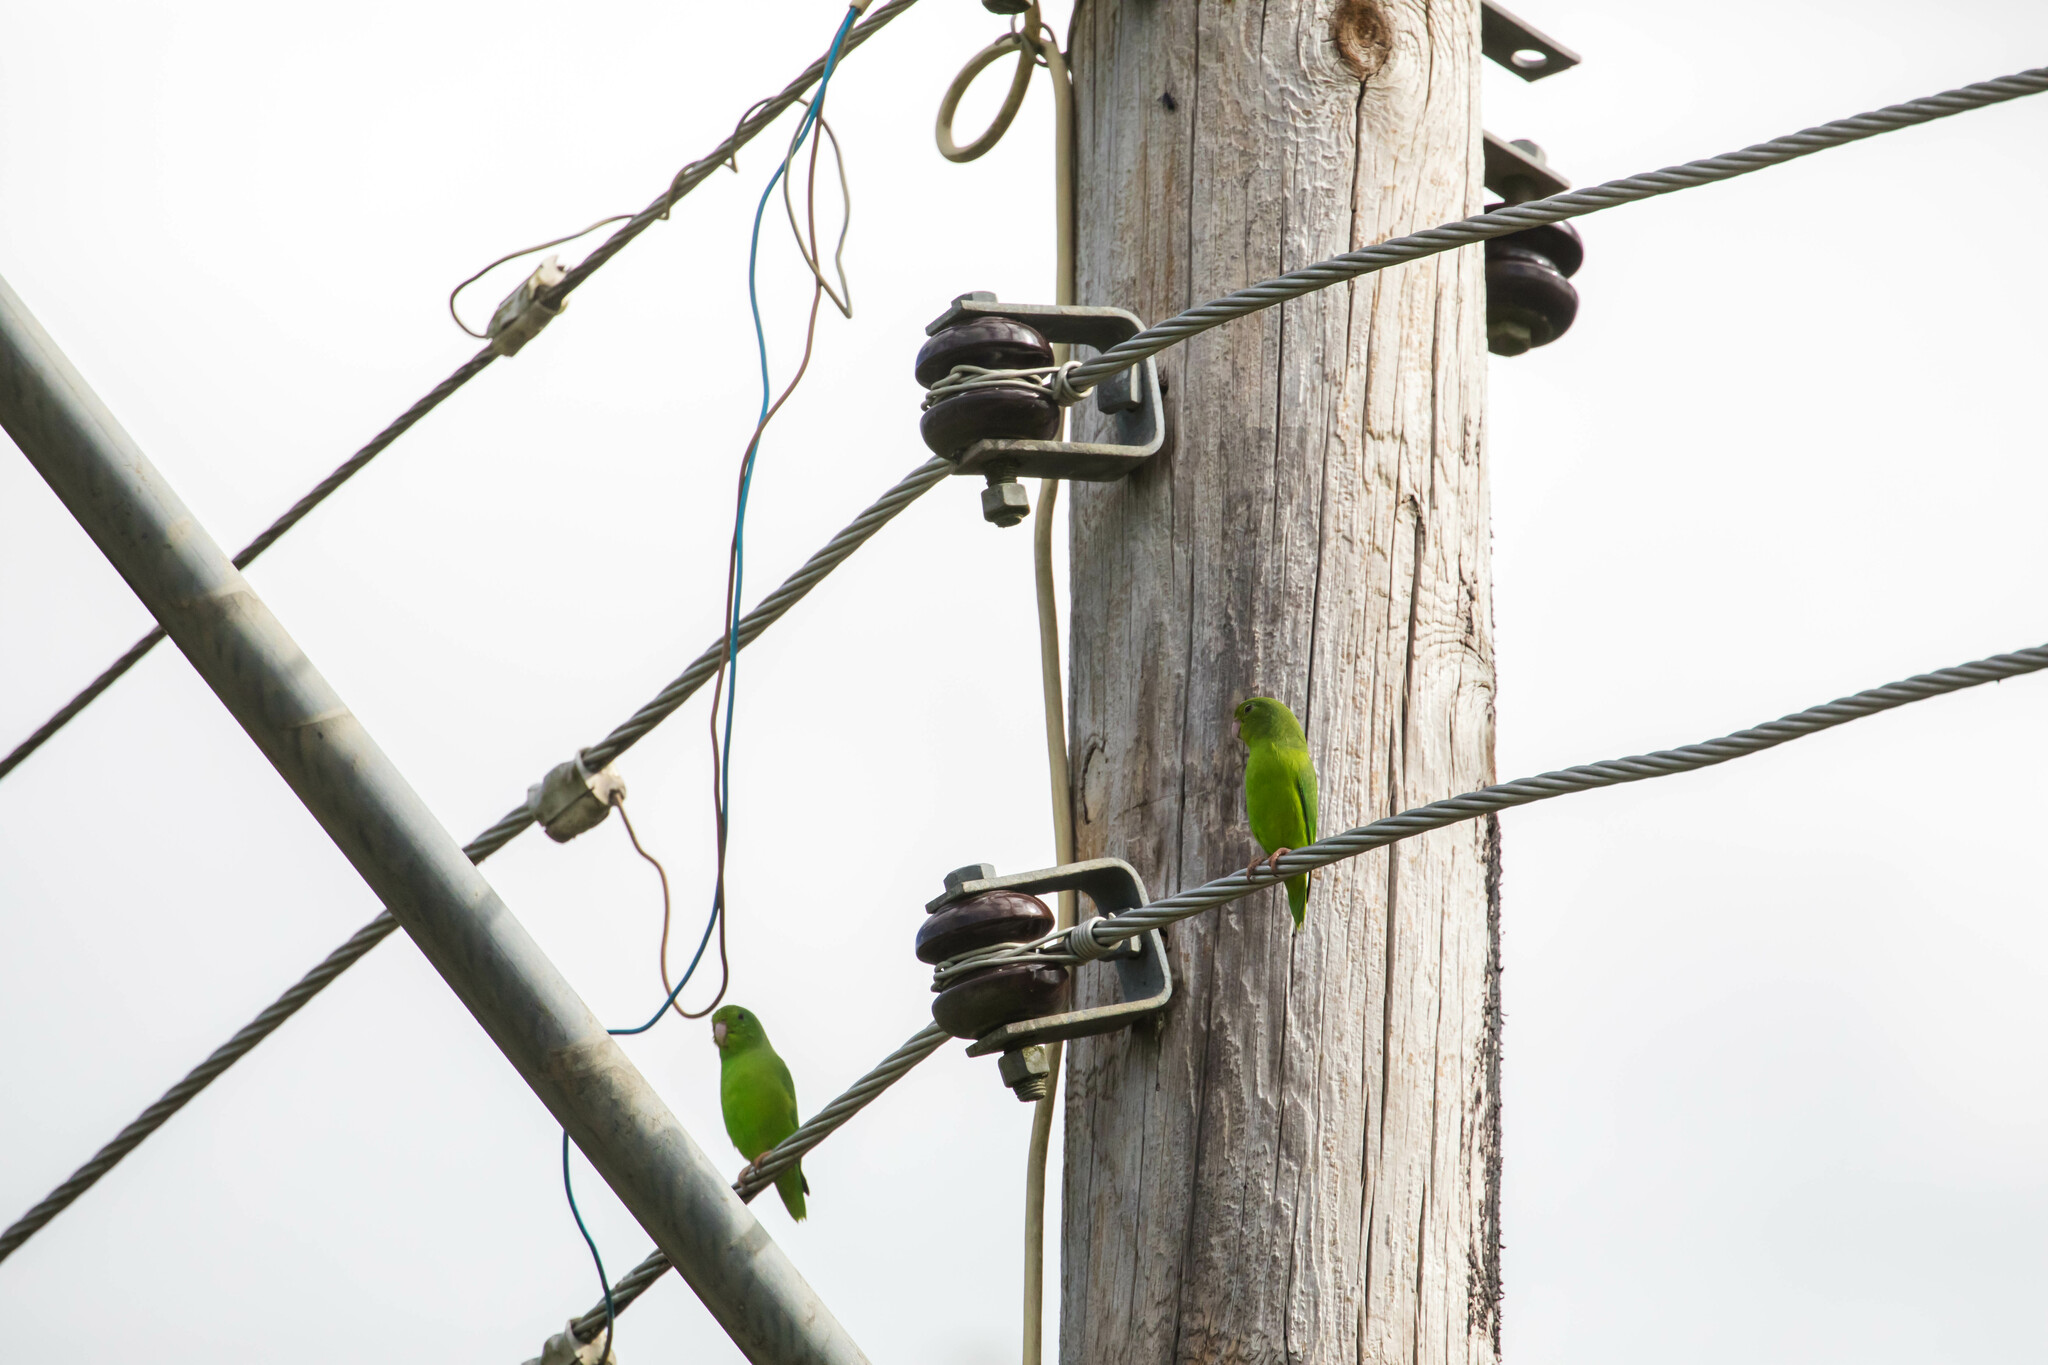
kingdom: Animalia
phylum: Chordata
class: Aves
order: Psittaciformes
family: Psittacidae
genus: Forpus
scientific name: Forpus passerinus
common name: Green-rumped parrotlet
